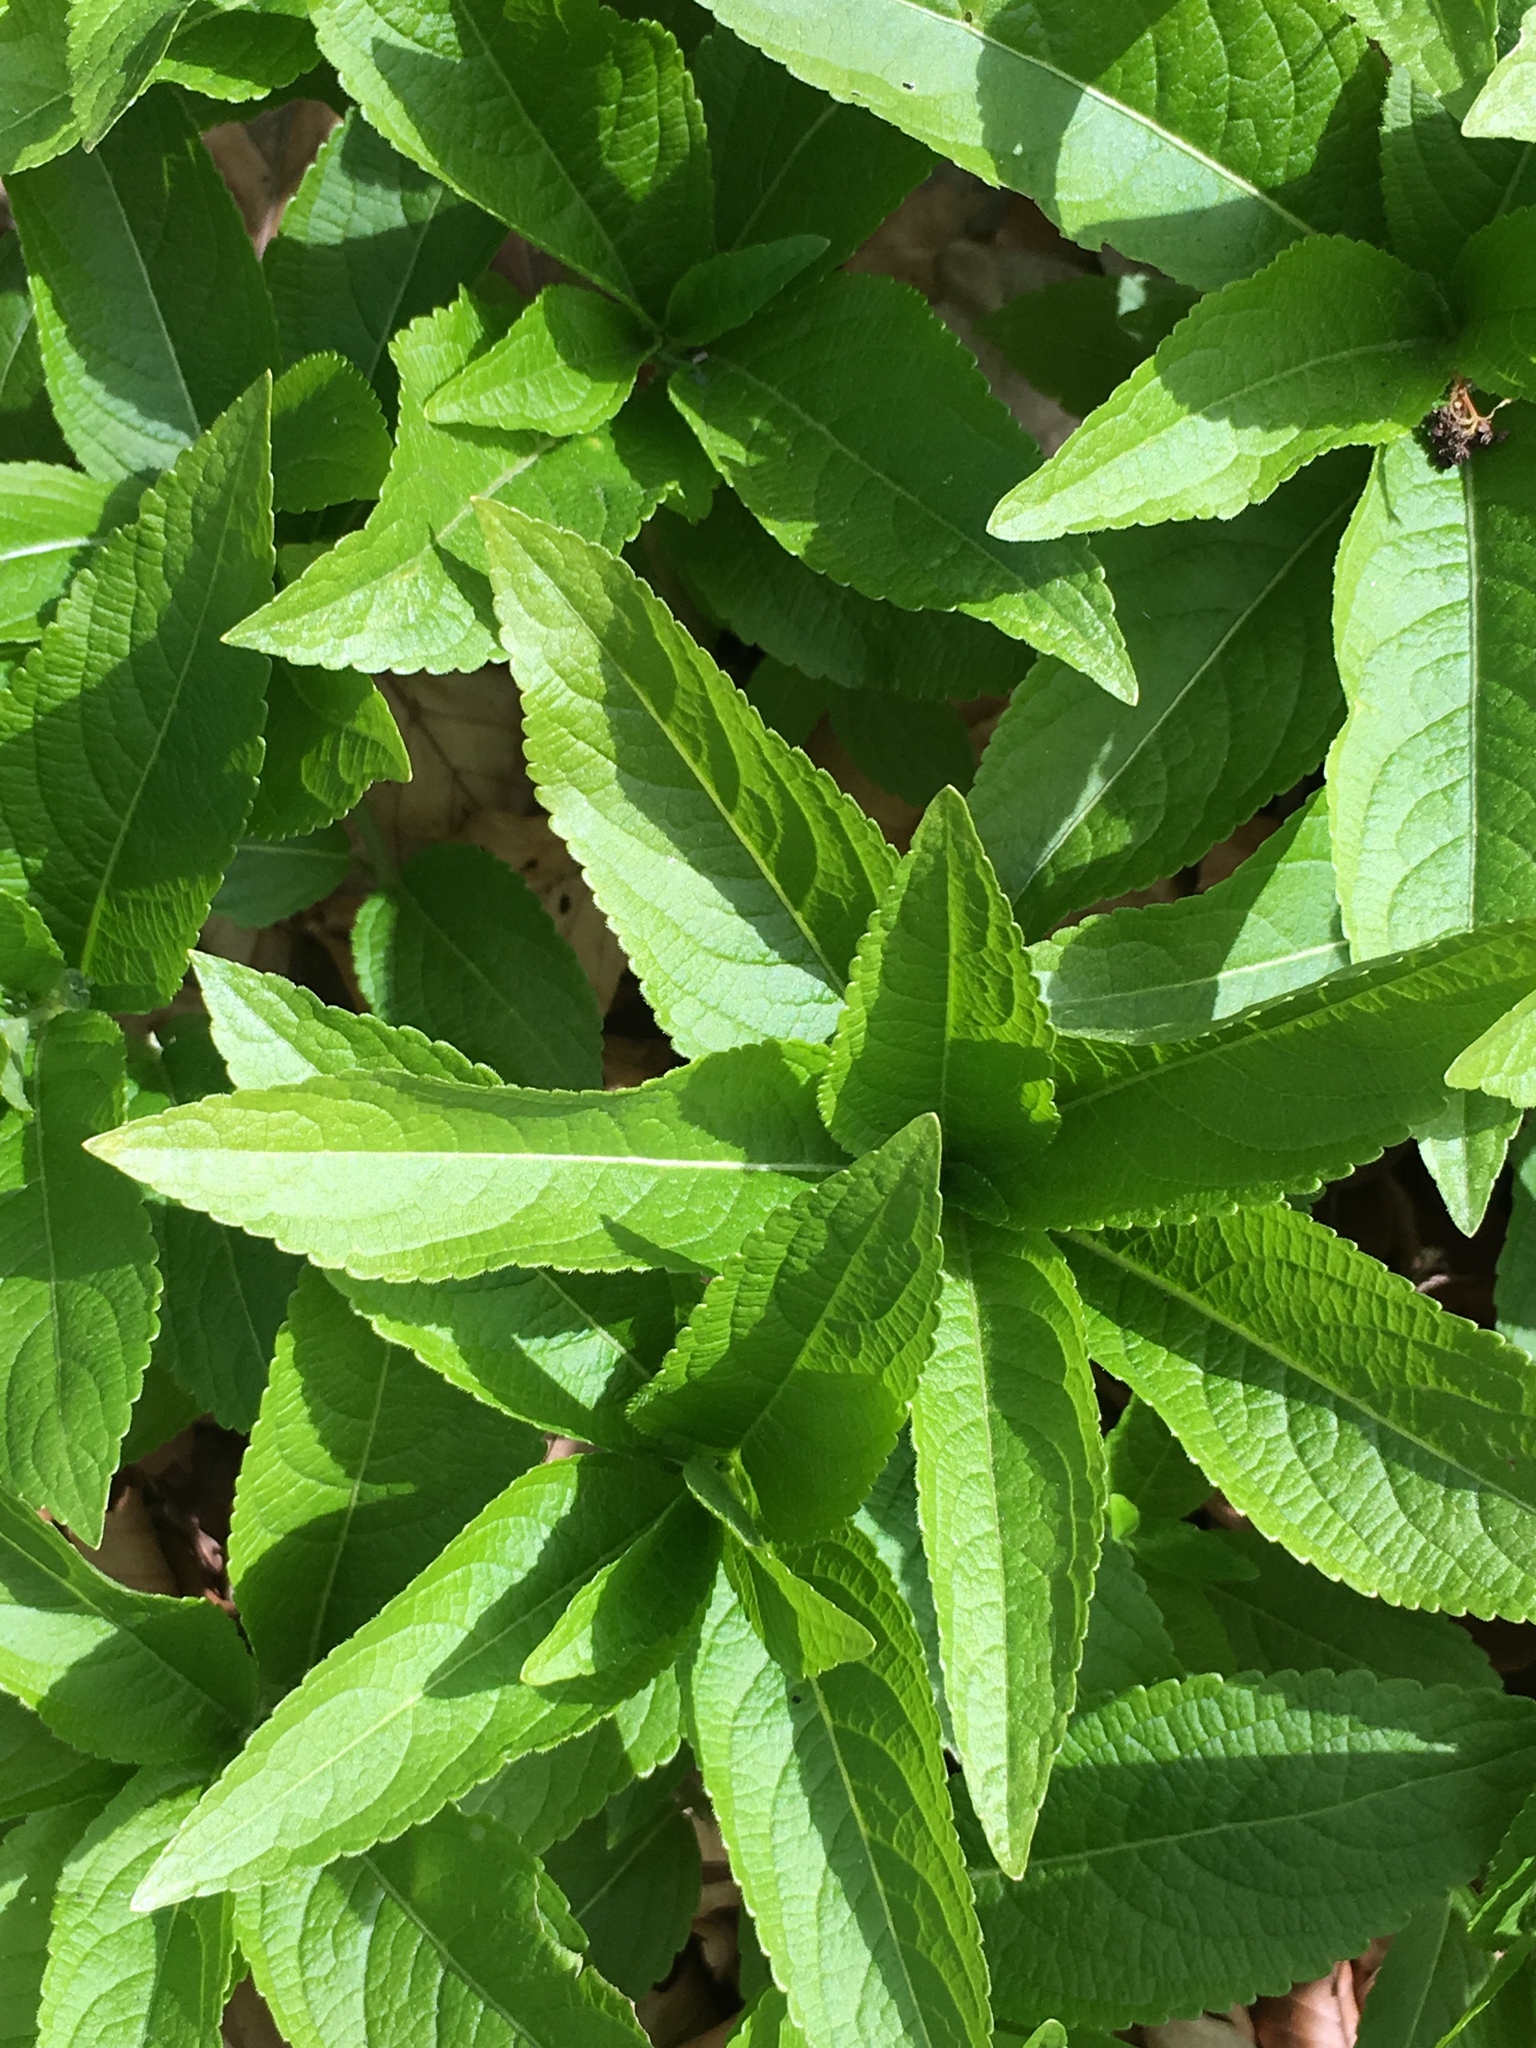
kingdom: Plantae
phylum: Tracheophyta
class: Magnoliopsida
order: Malpighiales
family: Euphorbiaceae
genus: Mercurialis
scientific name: Mercurialis perennis
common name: Dog mercury
